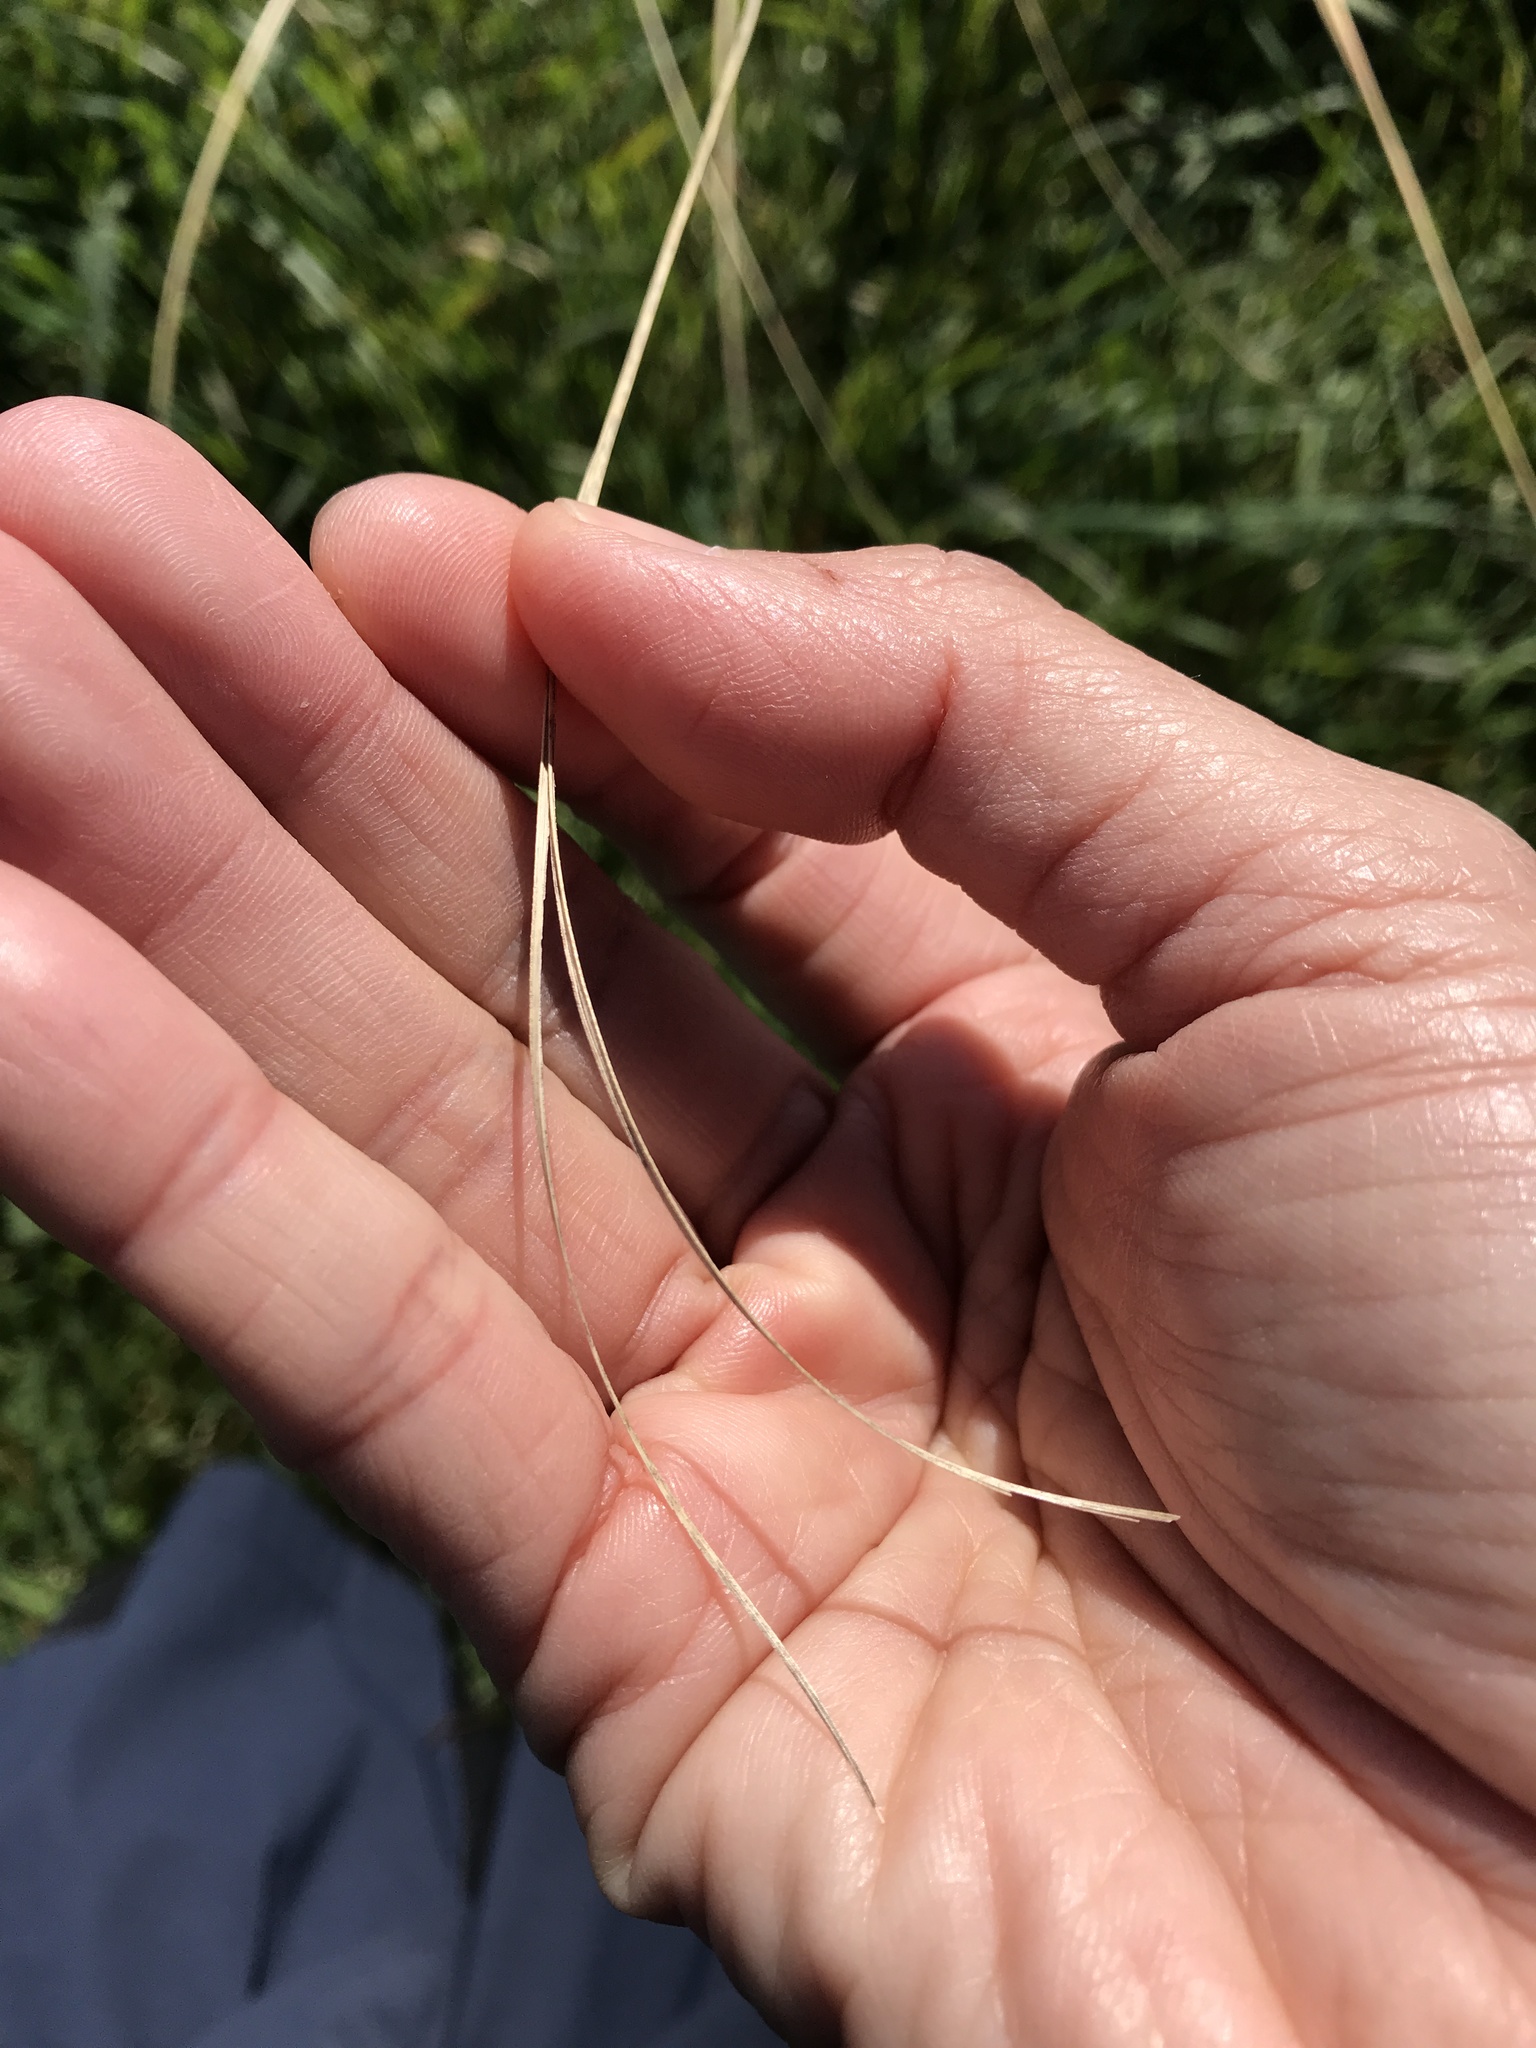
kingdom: Plantae
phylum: Tracheophyta
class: Liliopsida
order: Poales
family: Poaceae
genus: Austroderia
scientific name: Austroderia richardii
